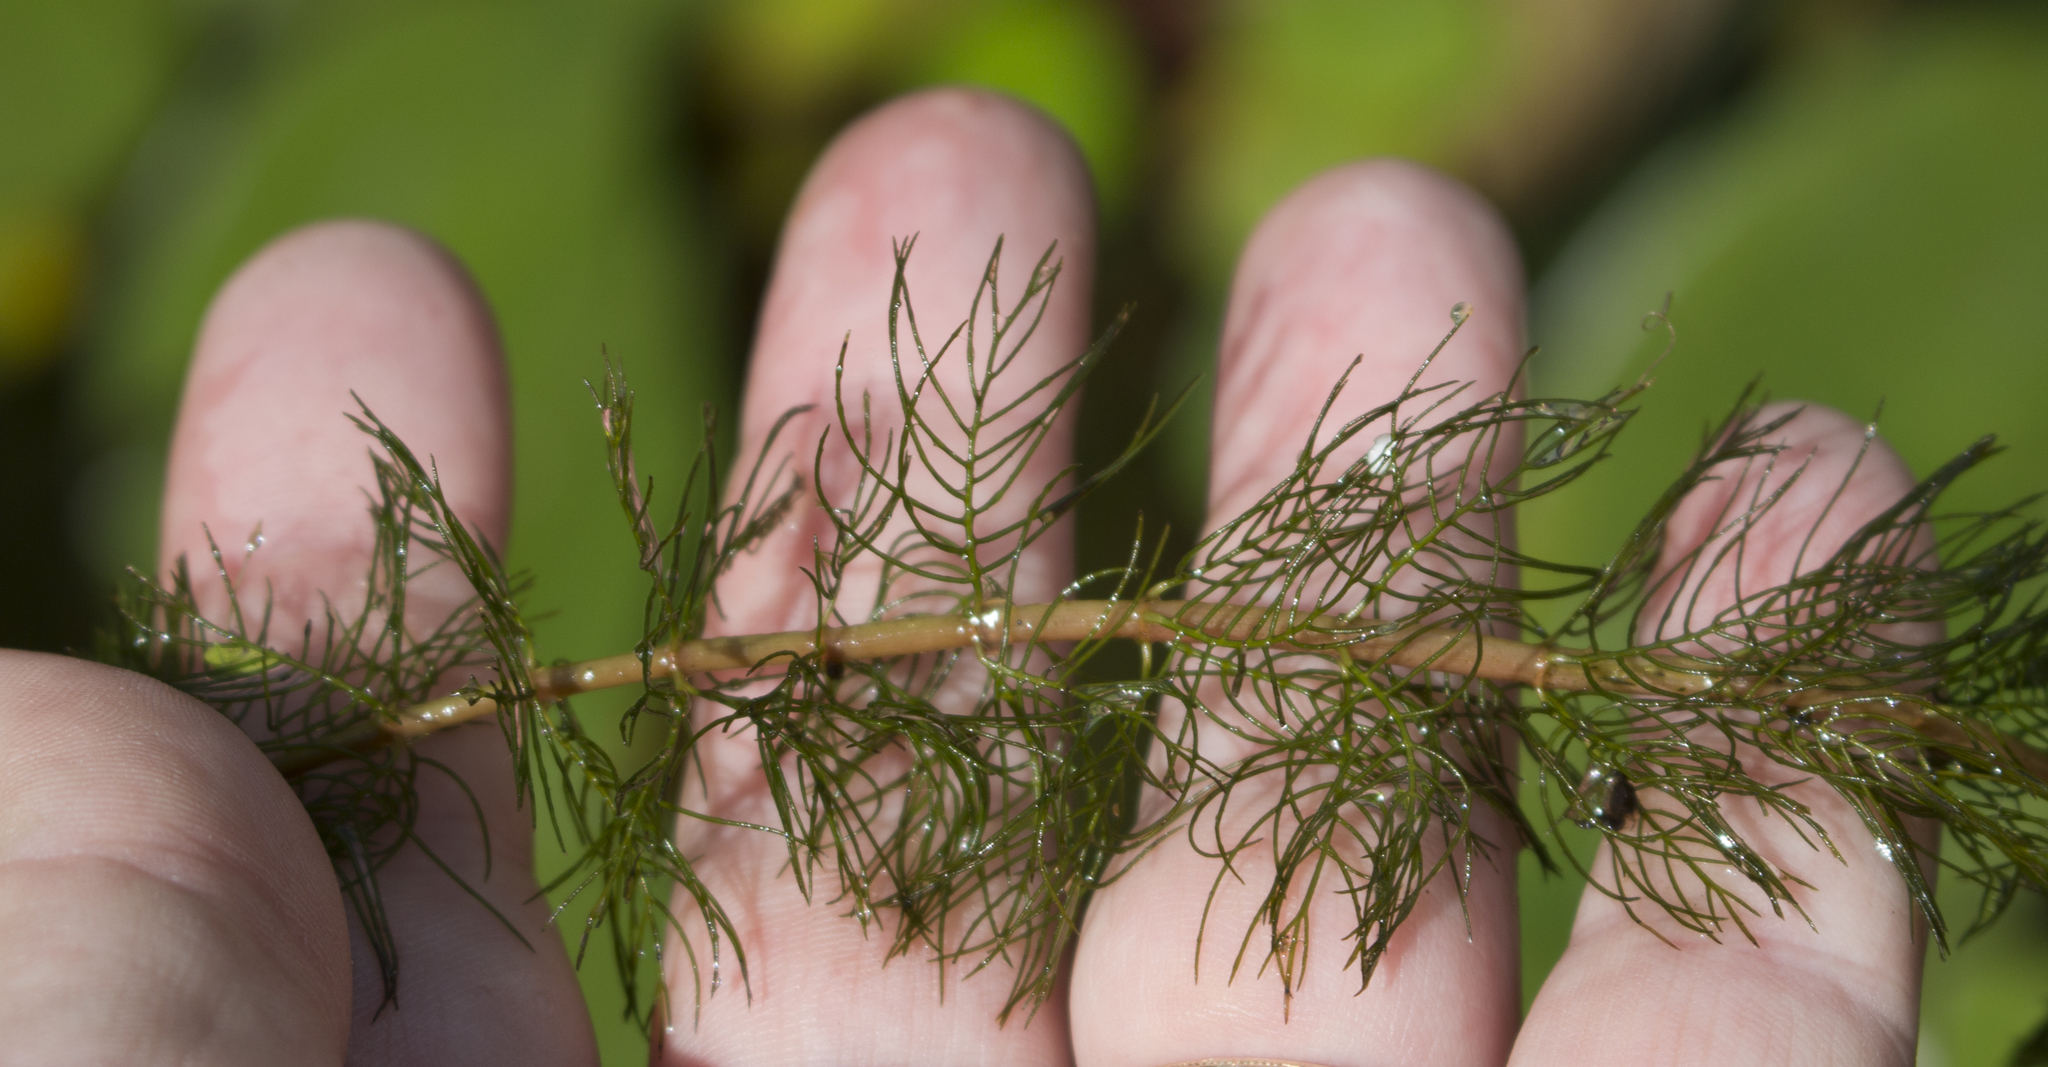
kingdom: Plantae
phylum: Tracheophyta
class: Magnoliopsida
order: Saxifragales
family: Haloragaceae
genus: Myriophyllum
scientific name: Myriophyllum sibiricum
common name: Siberian water-milfoil
